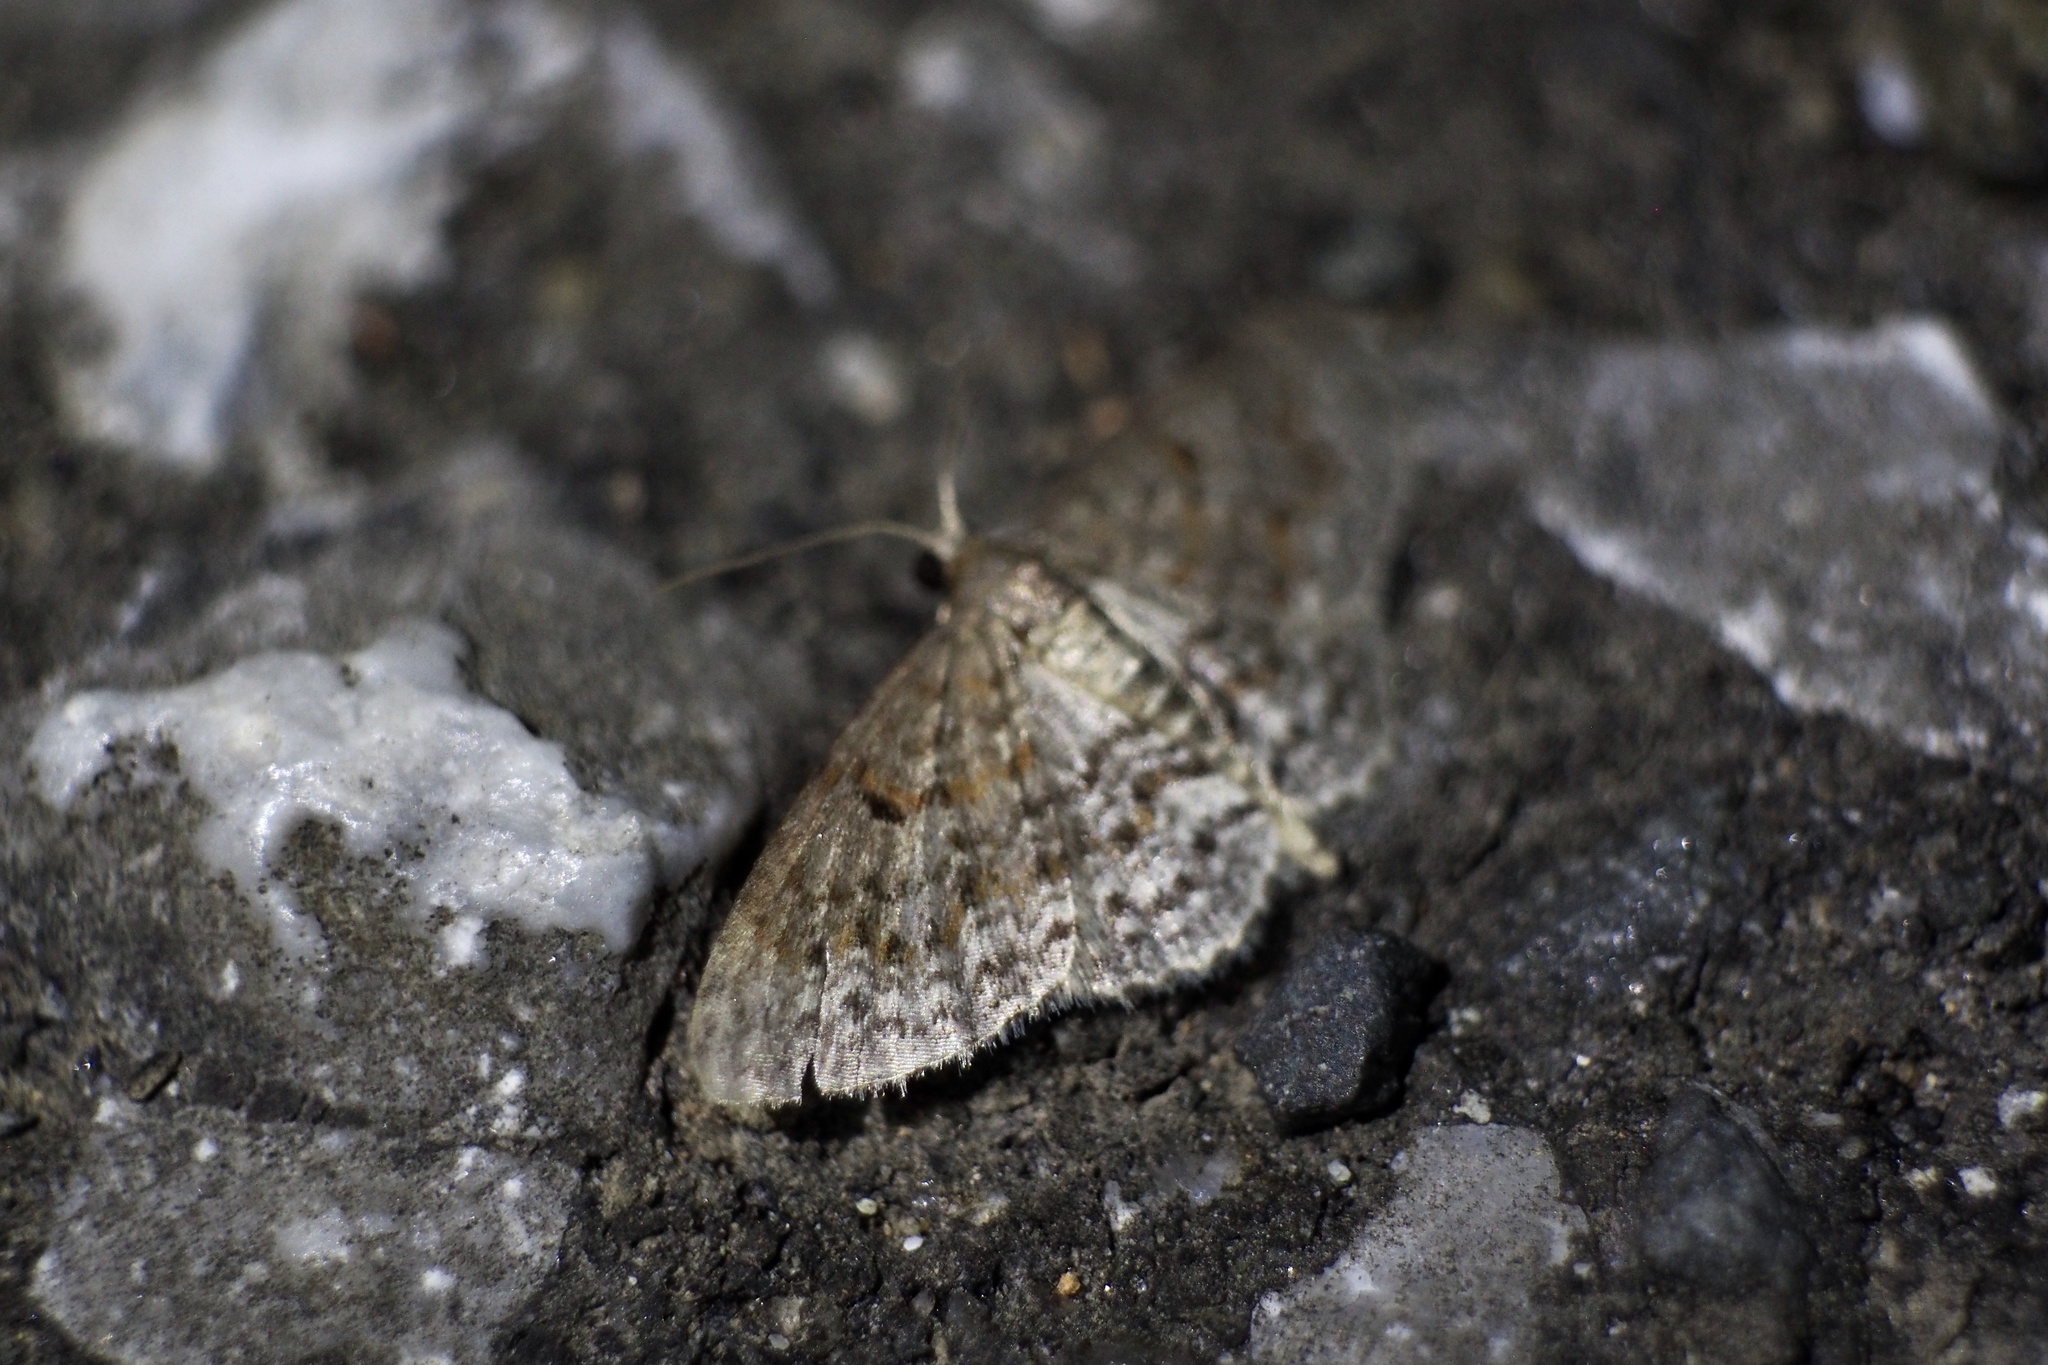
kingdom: Animalia
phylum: Arthropoda
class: Insecta
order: Lepidoptera
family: Geometridae
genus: Hydrelia
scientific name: Hydrelia nisaria
